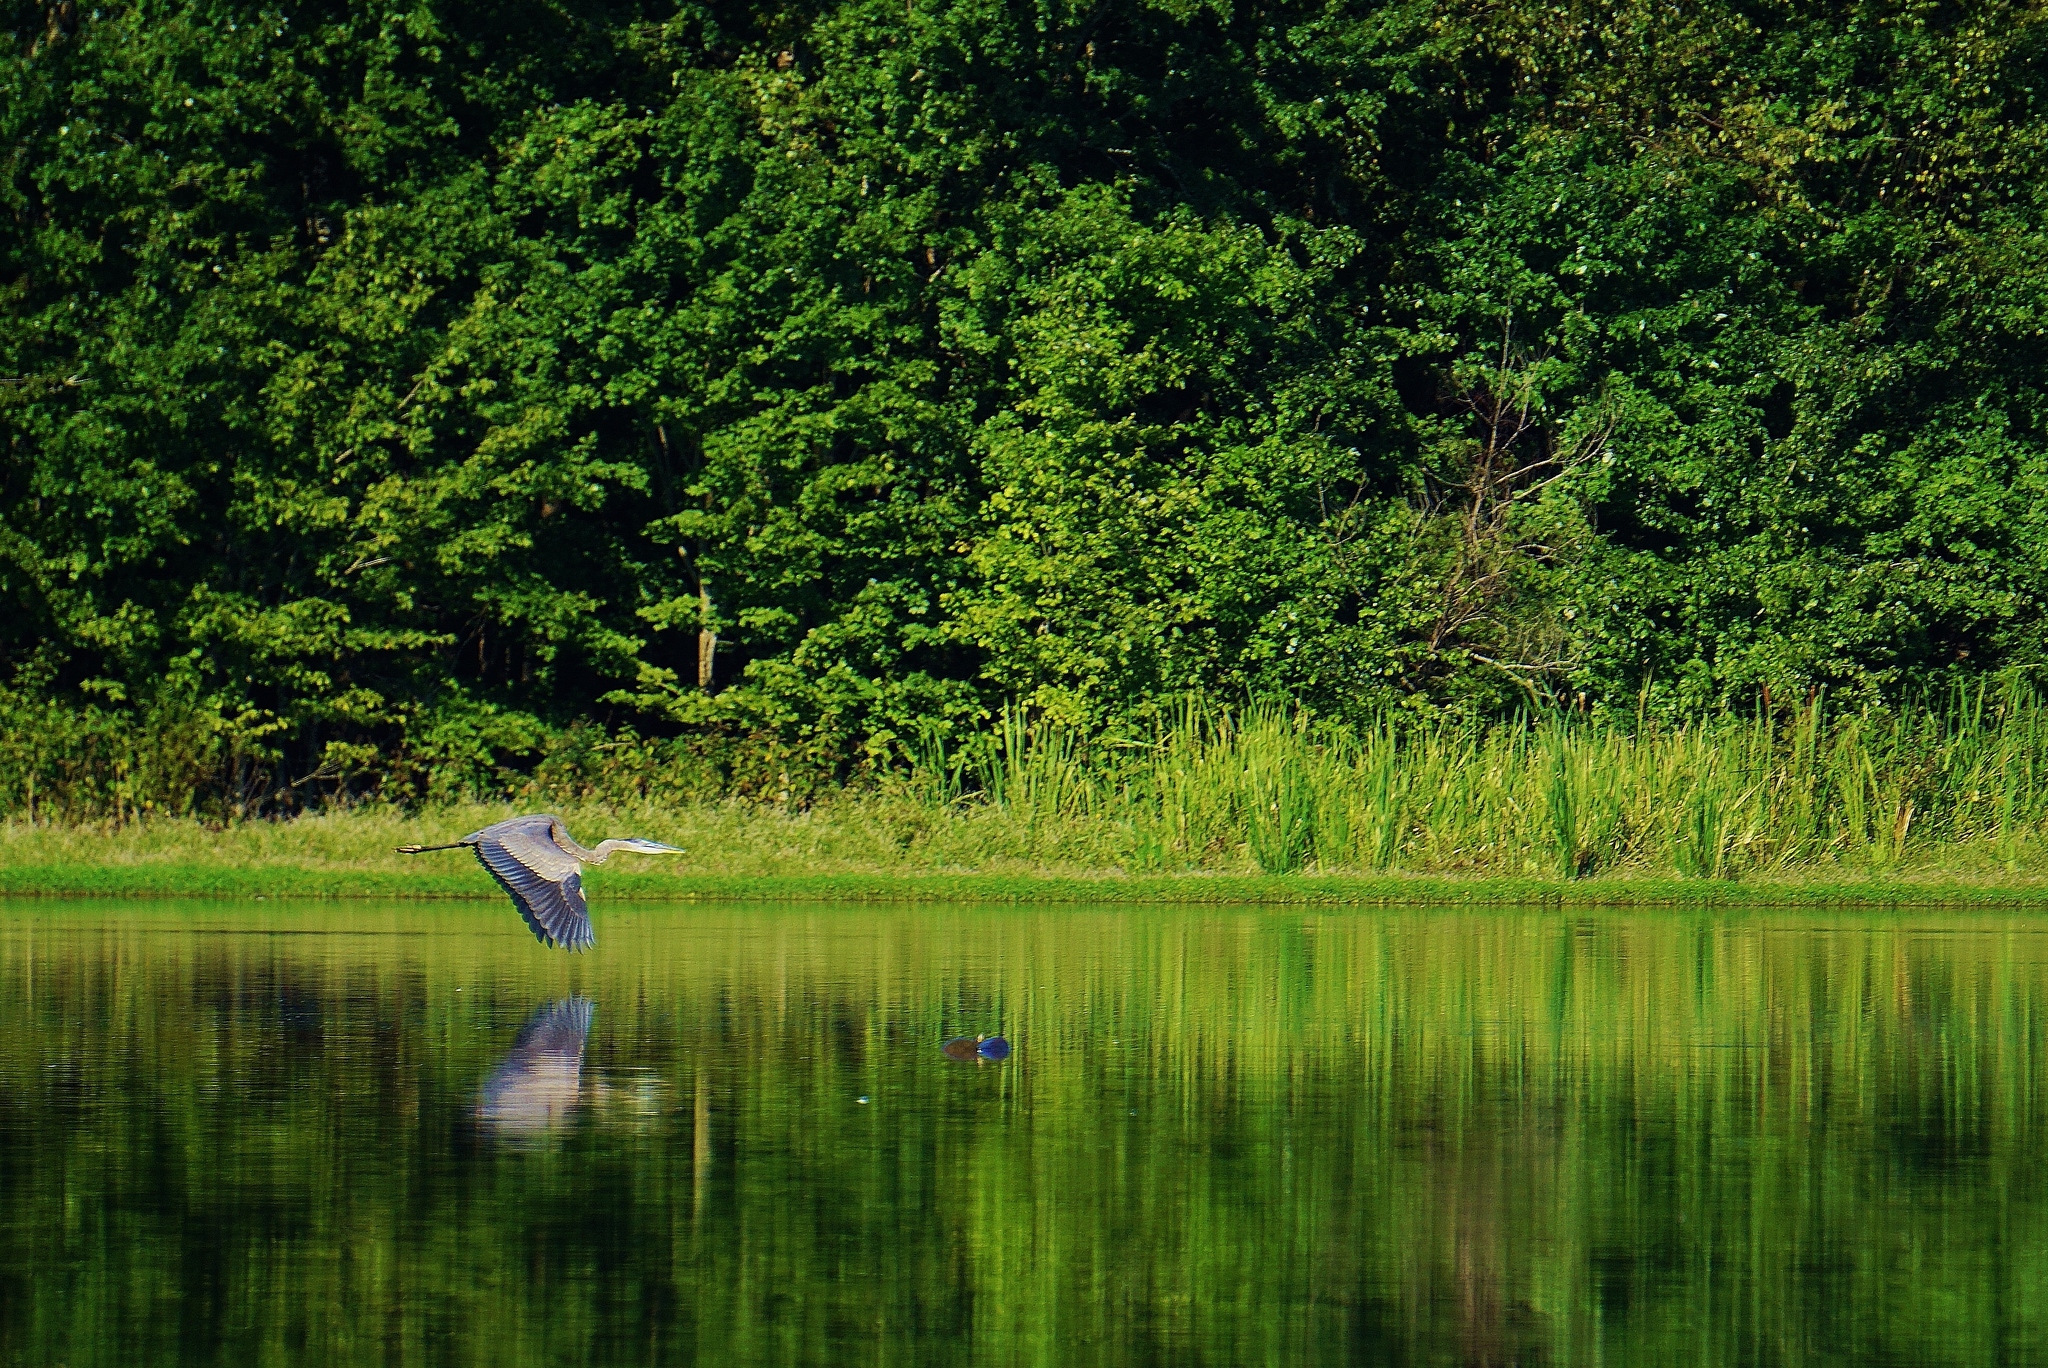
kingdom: Animalia
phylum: Chordata
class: Aves
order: Pelecaniformes
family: Ardeidae
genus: Ardea
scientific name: Ardea herodias
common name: Great blue heron
